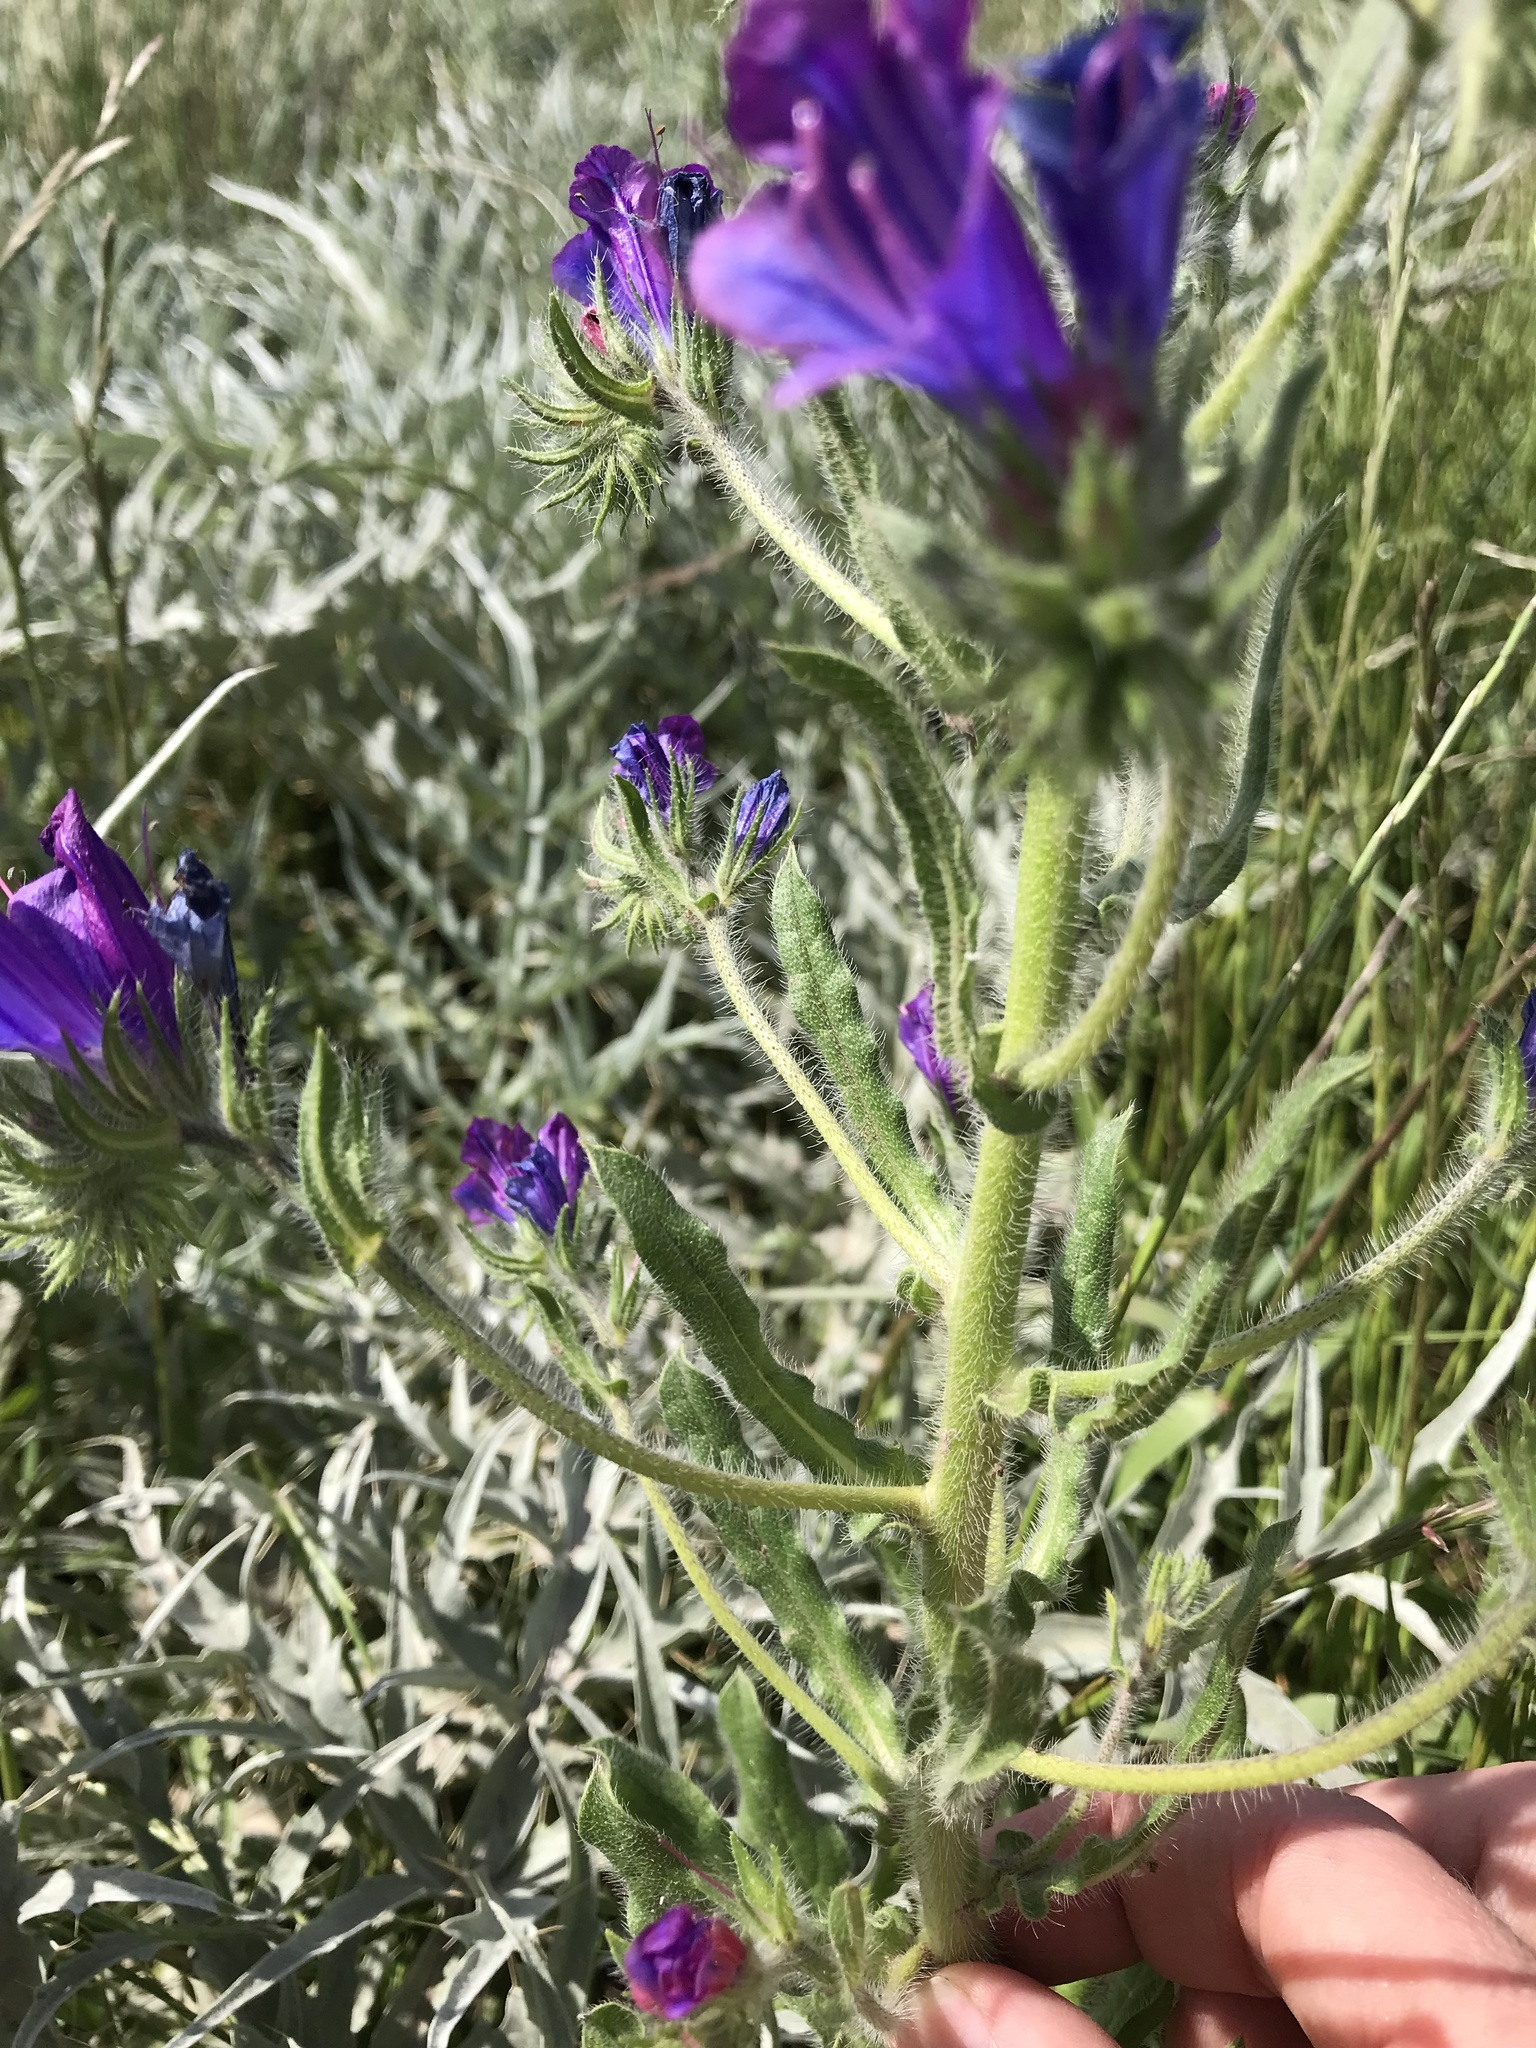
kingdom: Plantae
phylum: Tracheophyta
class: Magnoliopsida
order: Boraginales
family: Boraginaceae
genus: Echium
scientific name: Echium plantagineum
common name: Purple viper's-bugloss
